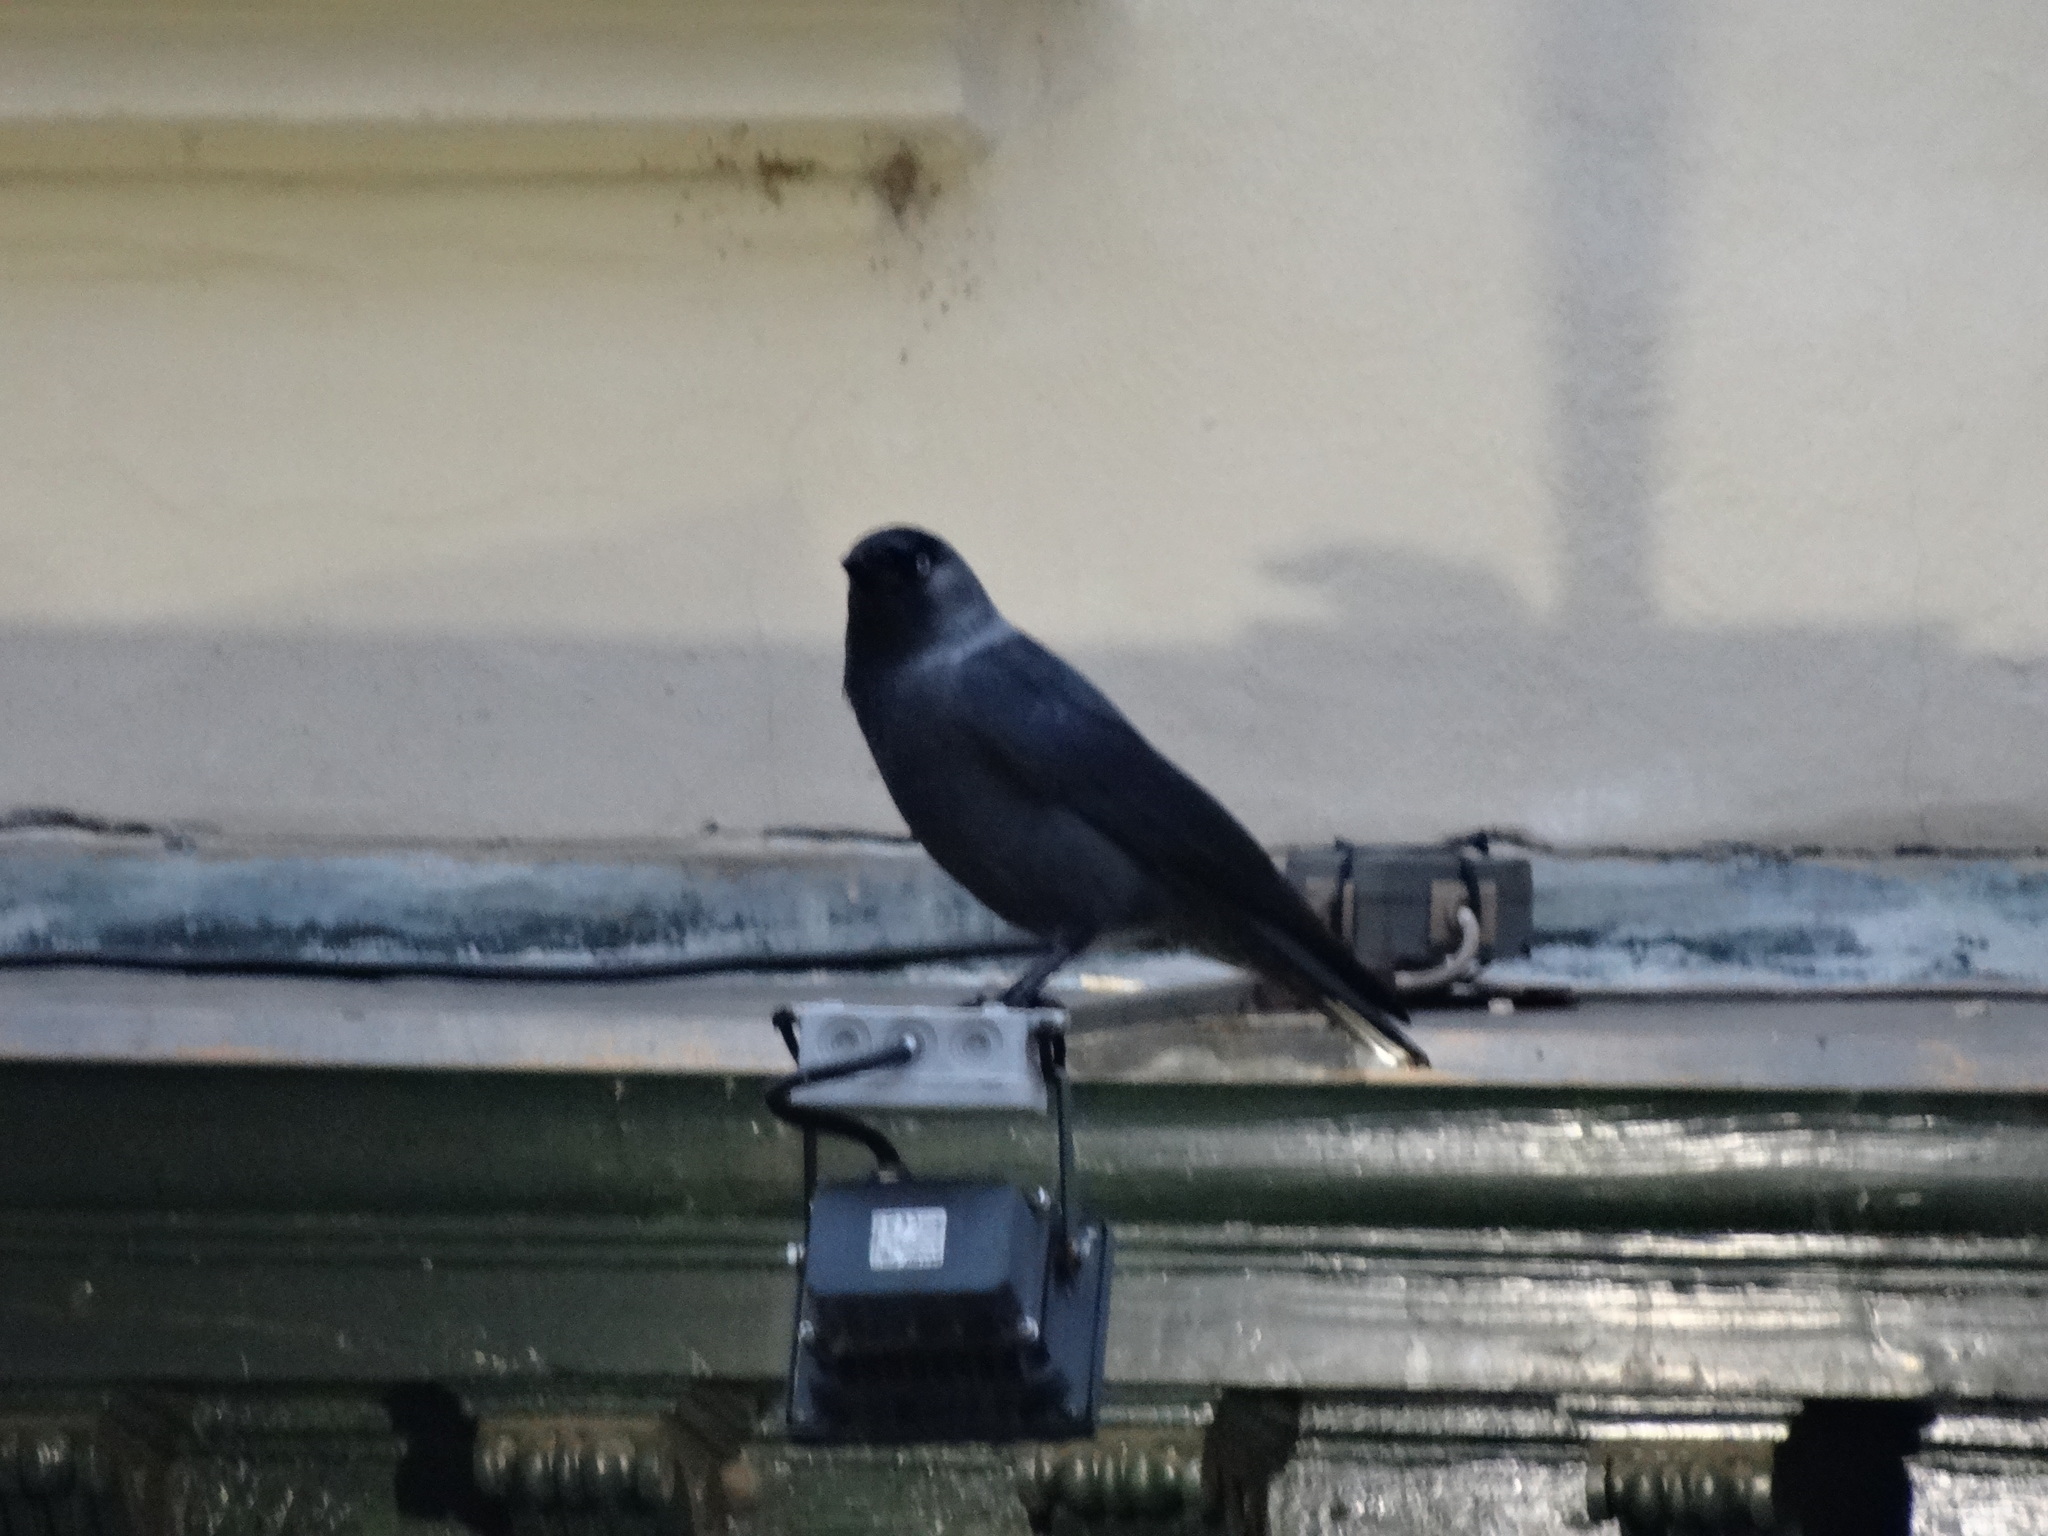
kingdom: Animalia
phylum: Chordata
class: Aves
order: Passeriformes
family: Corvidae
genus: Coloeus
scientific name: Coloeus monedula
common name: Western jackdaw
